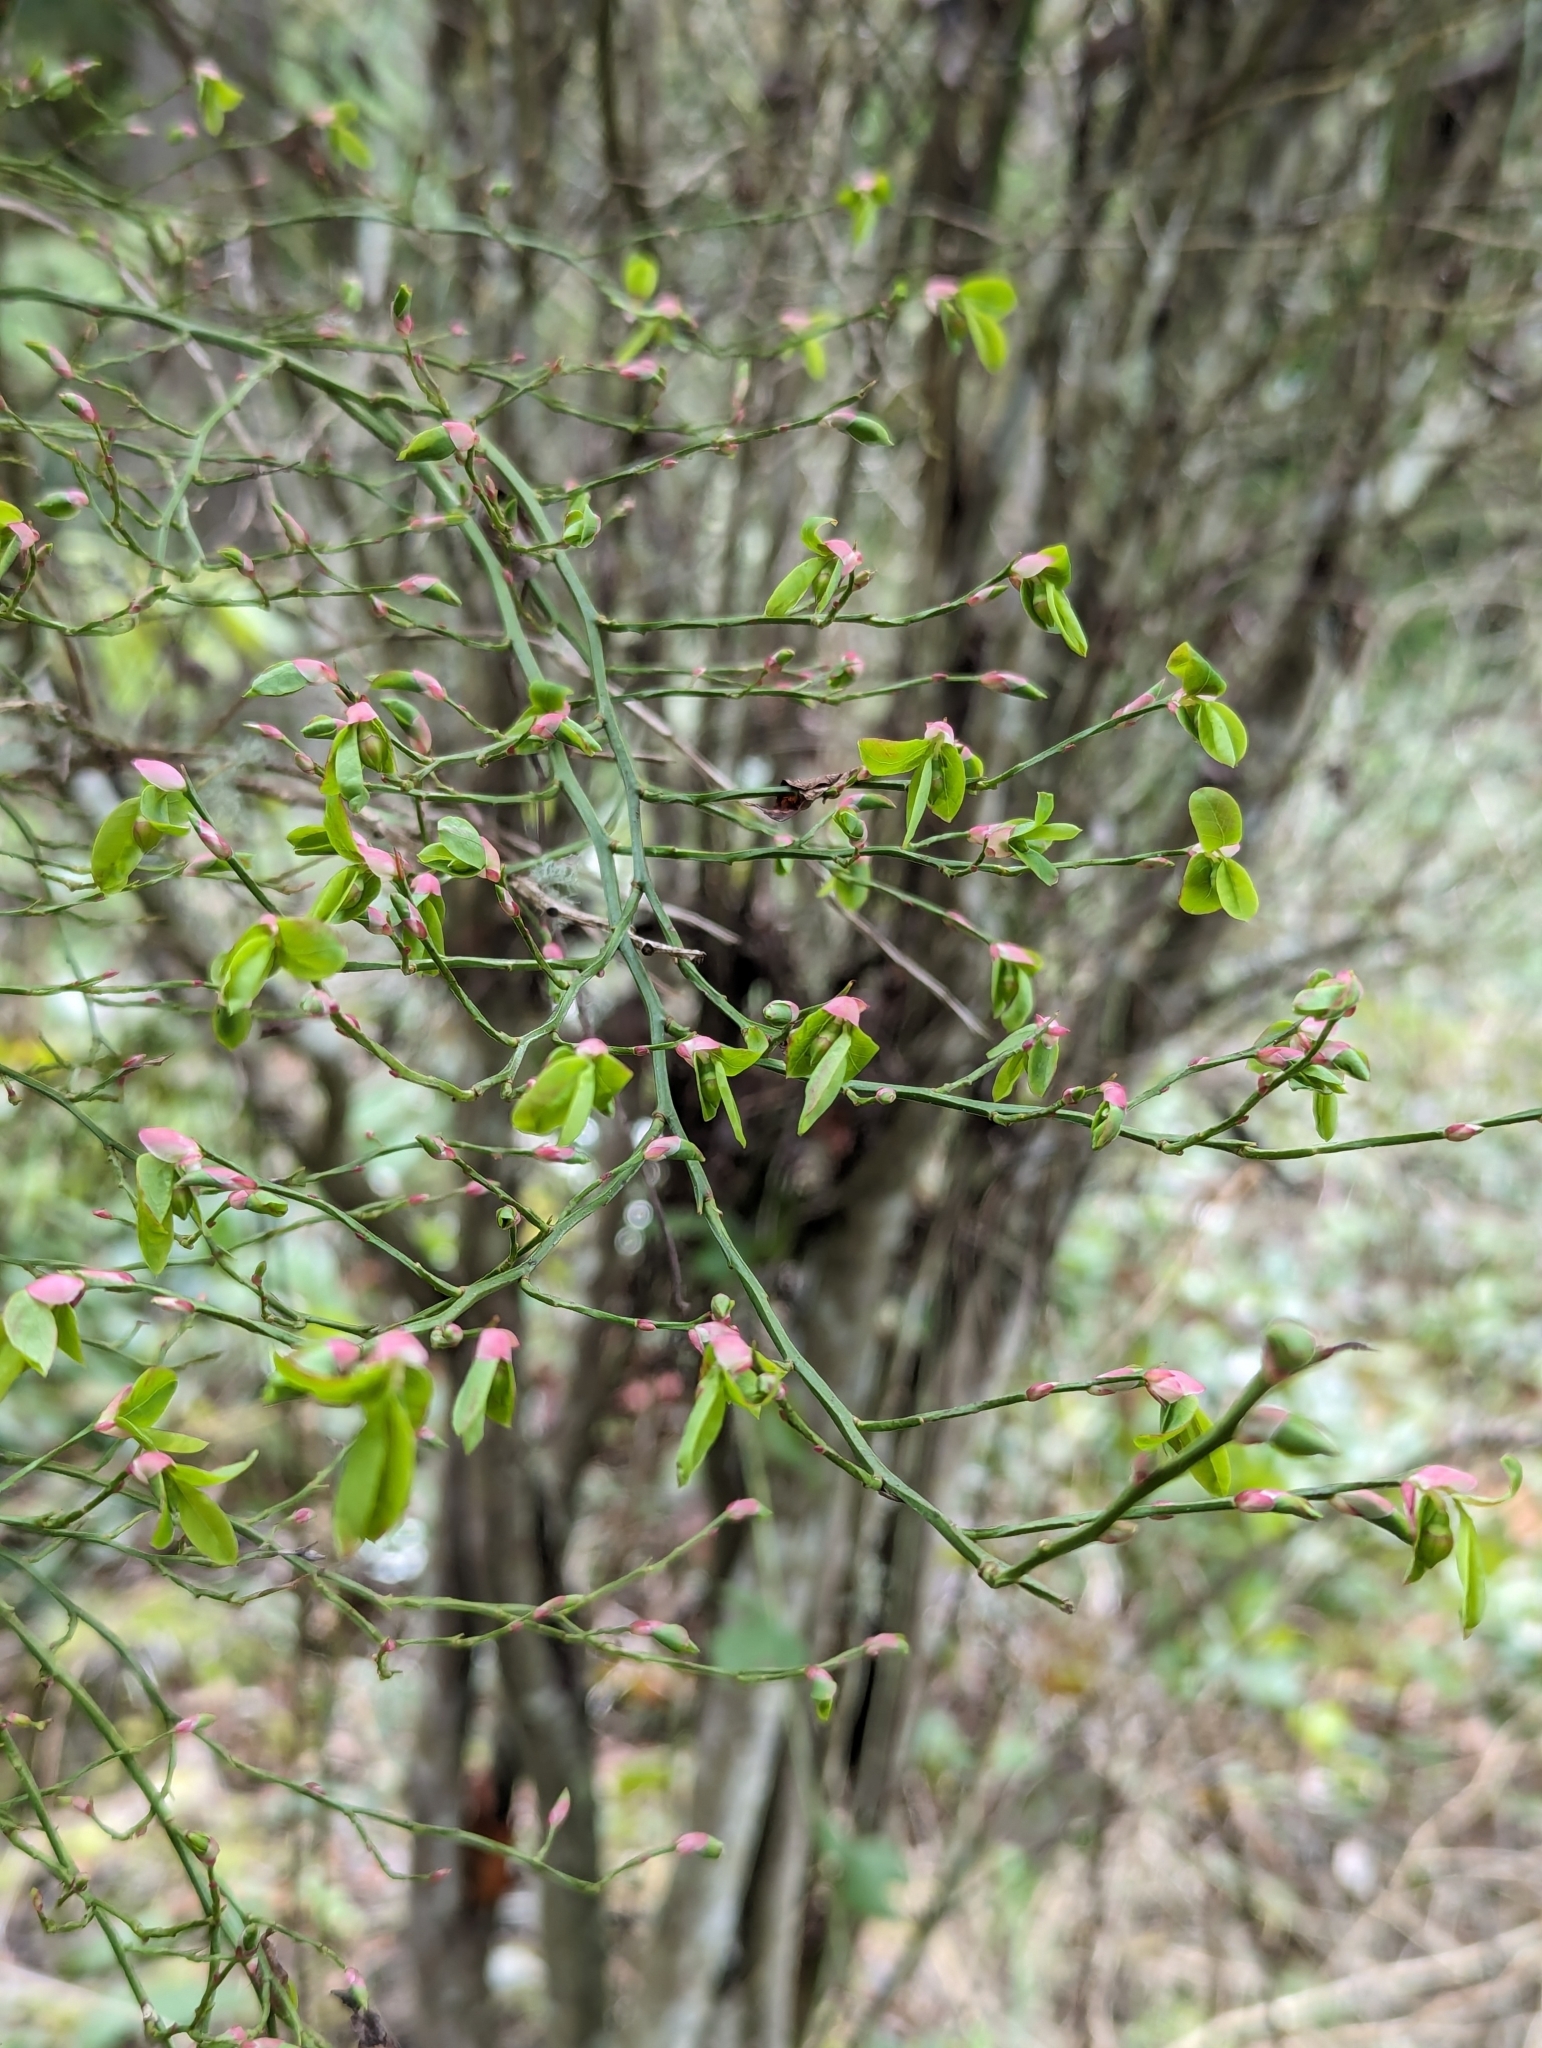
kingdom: Plantae
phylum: Tracheophyta
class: Magnoliopsida
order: Ericales
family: Ericaceae
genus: Vaccinium
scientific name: Vaccinium parvifolium
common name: Red-huckleberry
